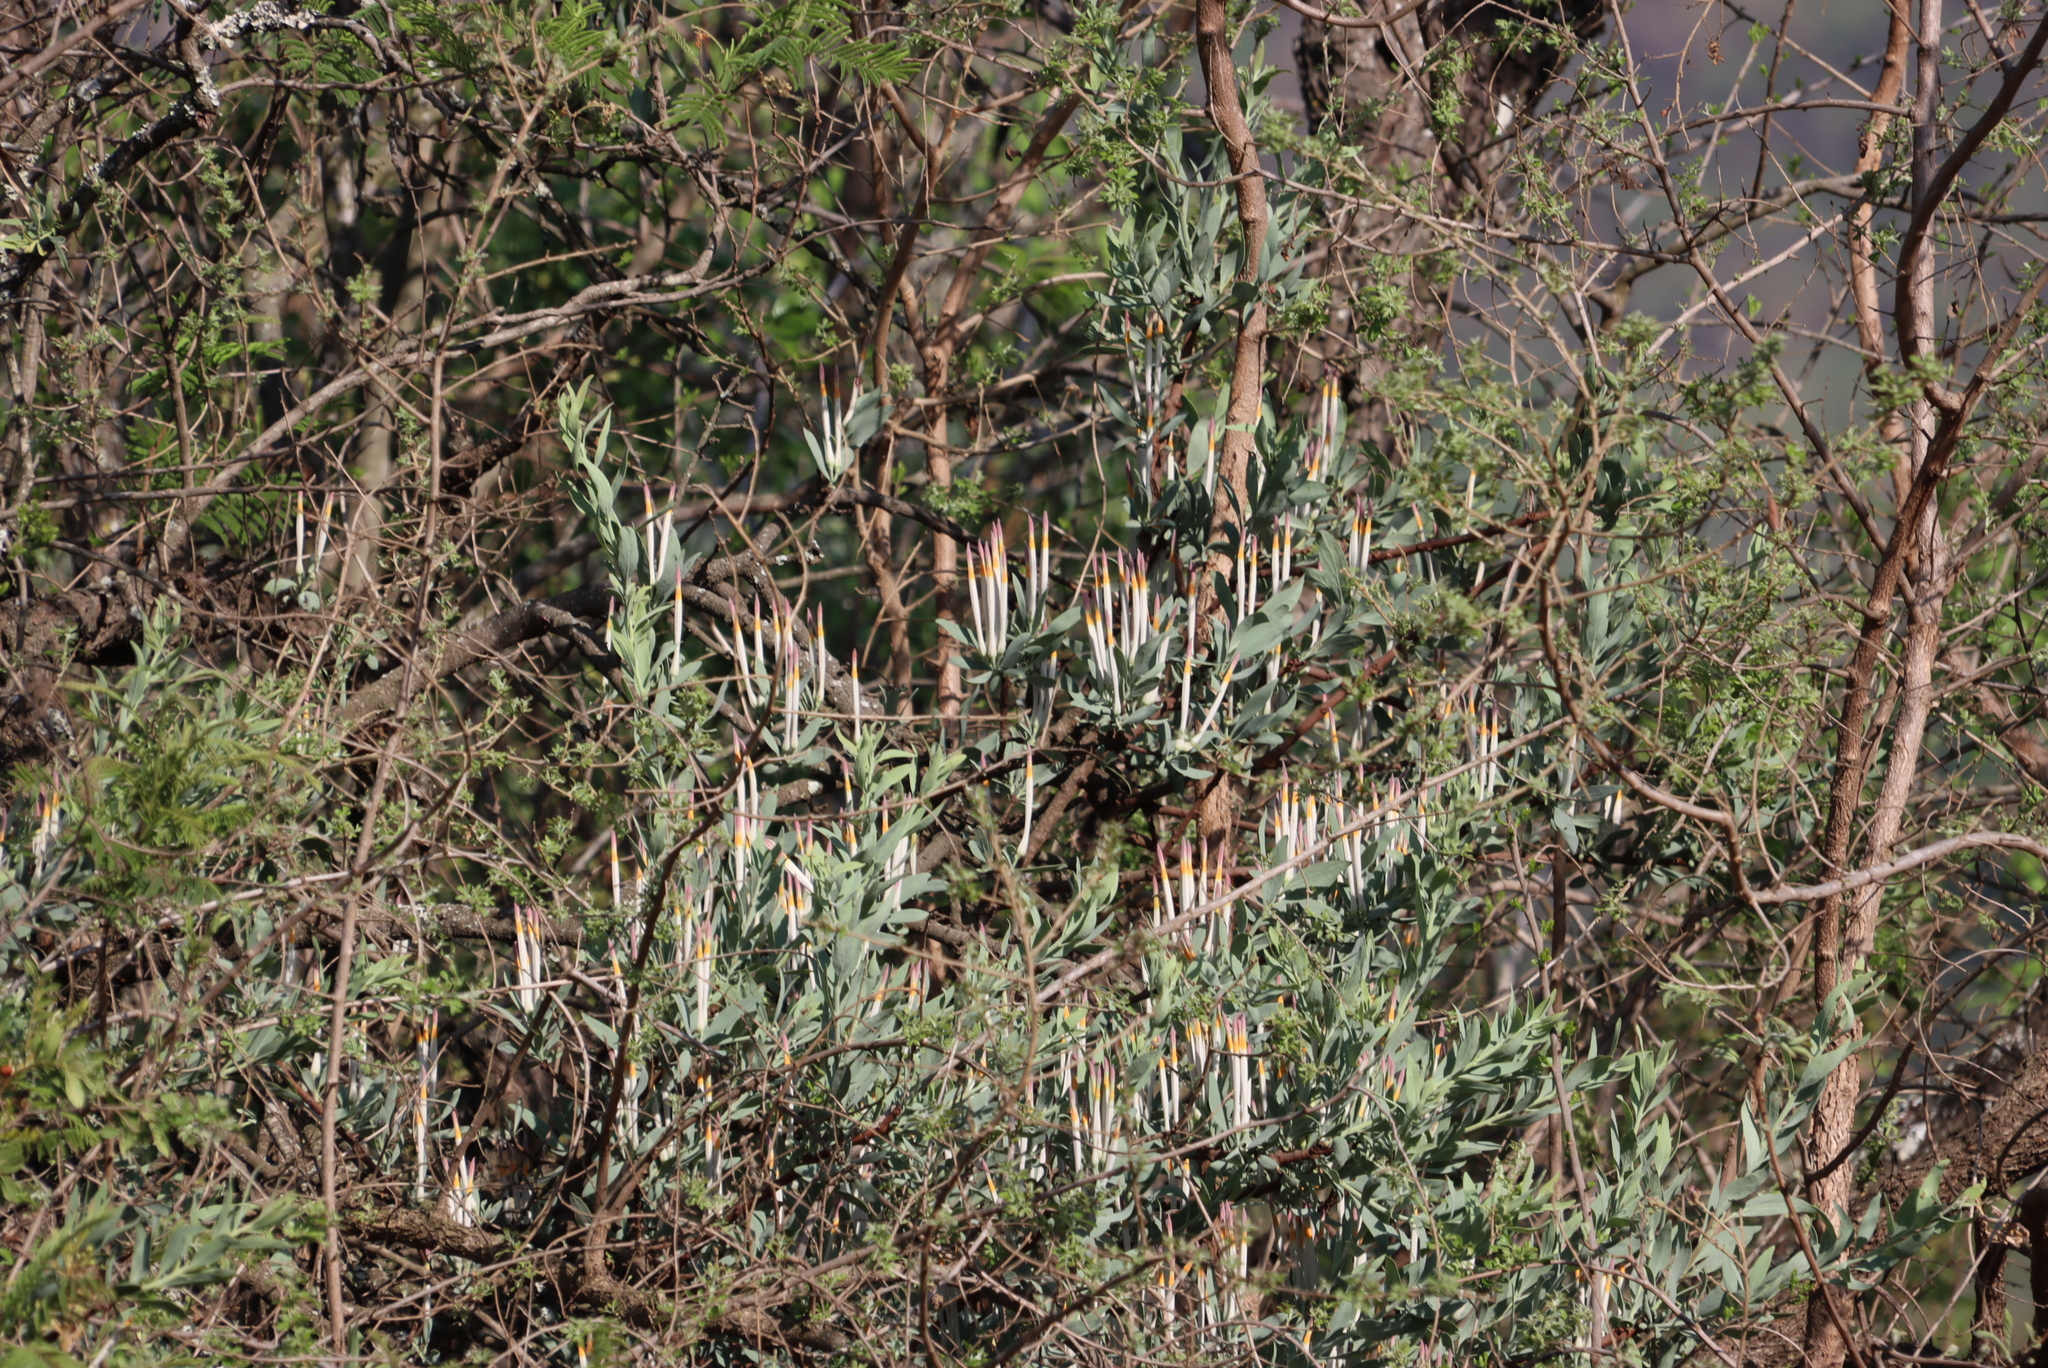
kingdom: Plantae
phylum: Tracheophyta
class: Magnoliopsida
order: Santalales
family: Loranthaceae
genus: Agelanthus
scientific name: Agelanthus natalitius
